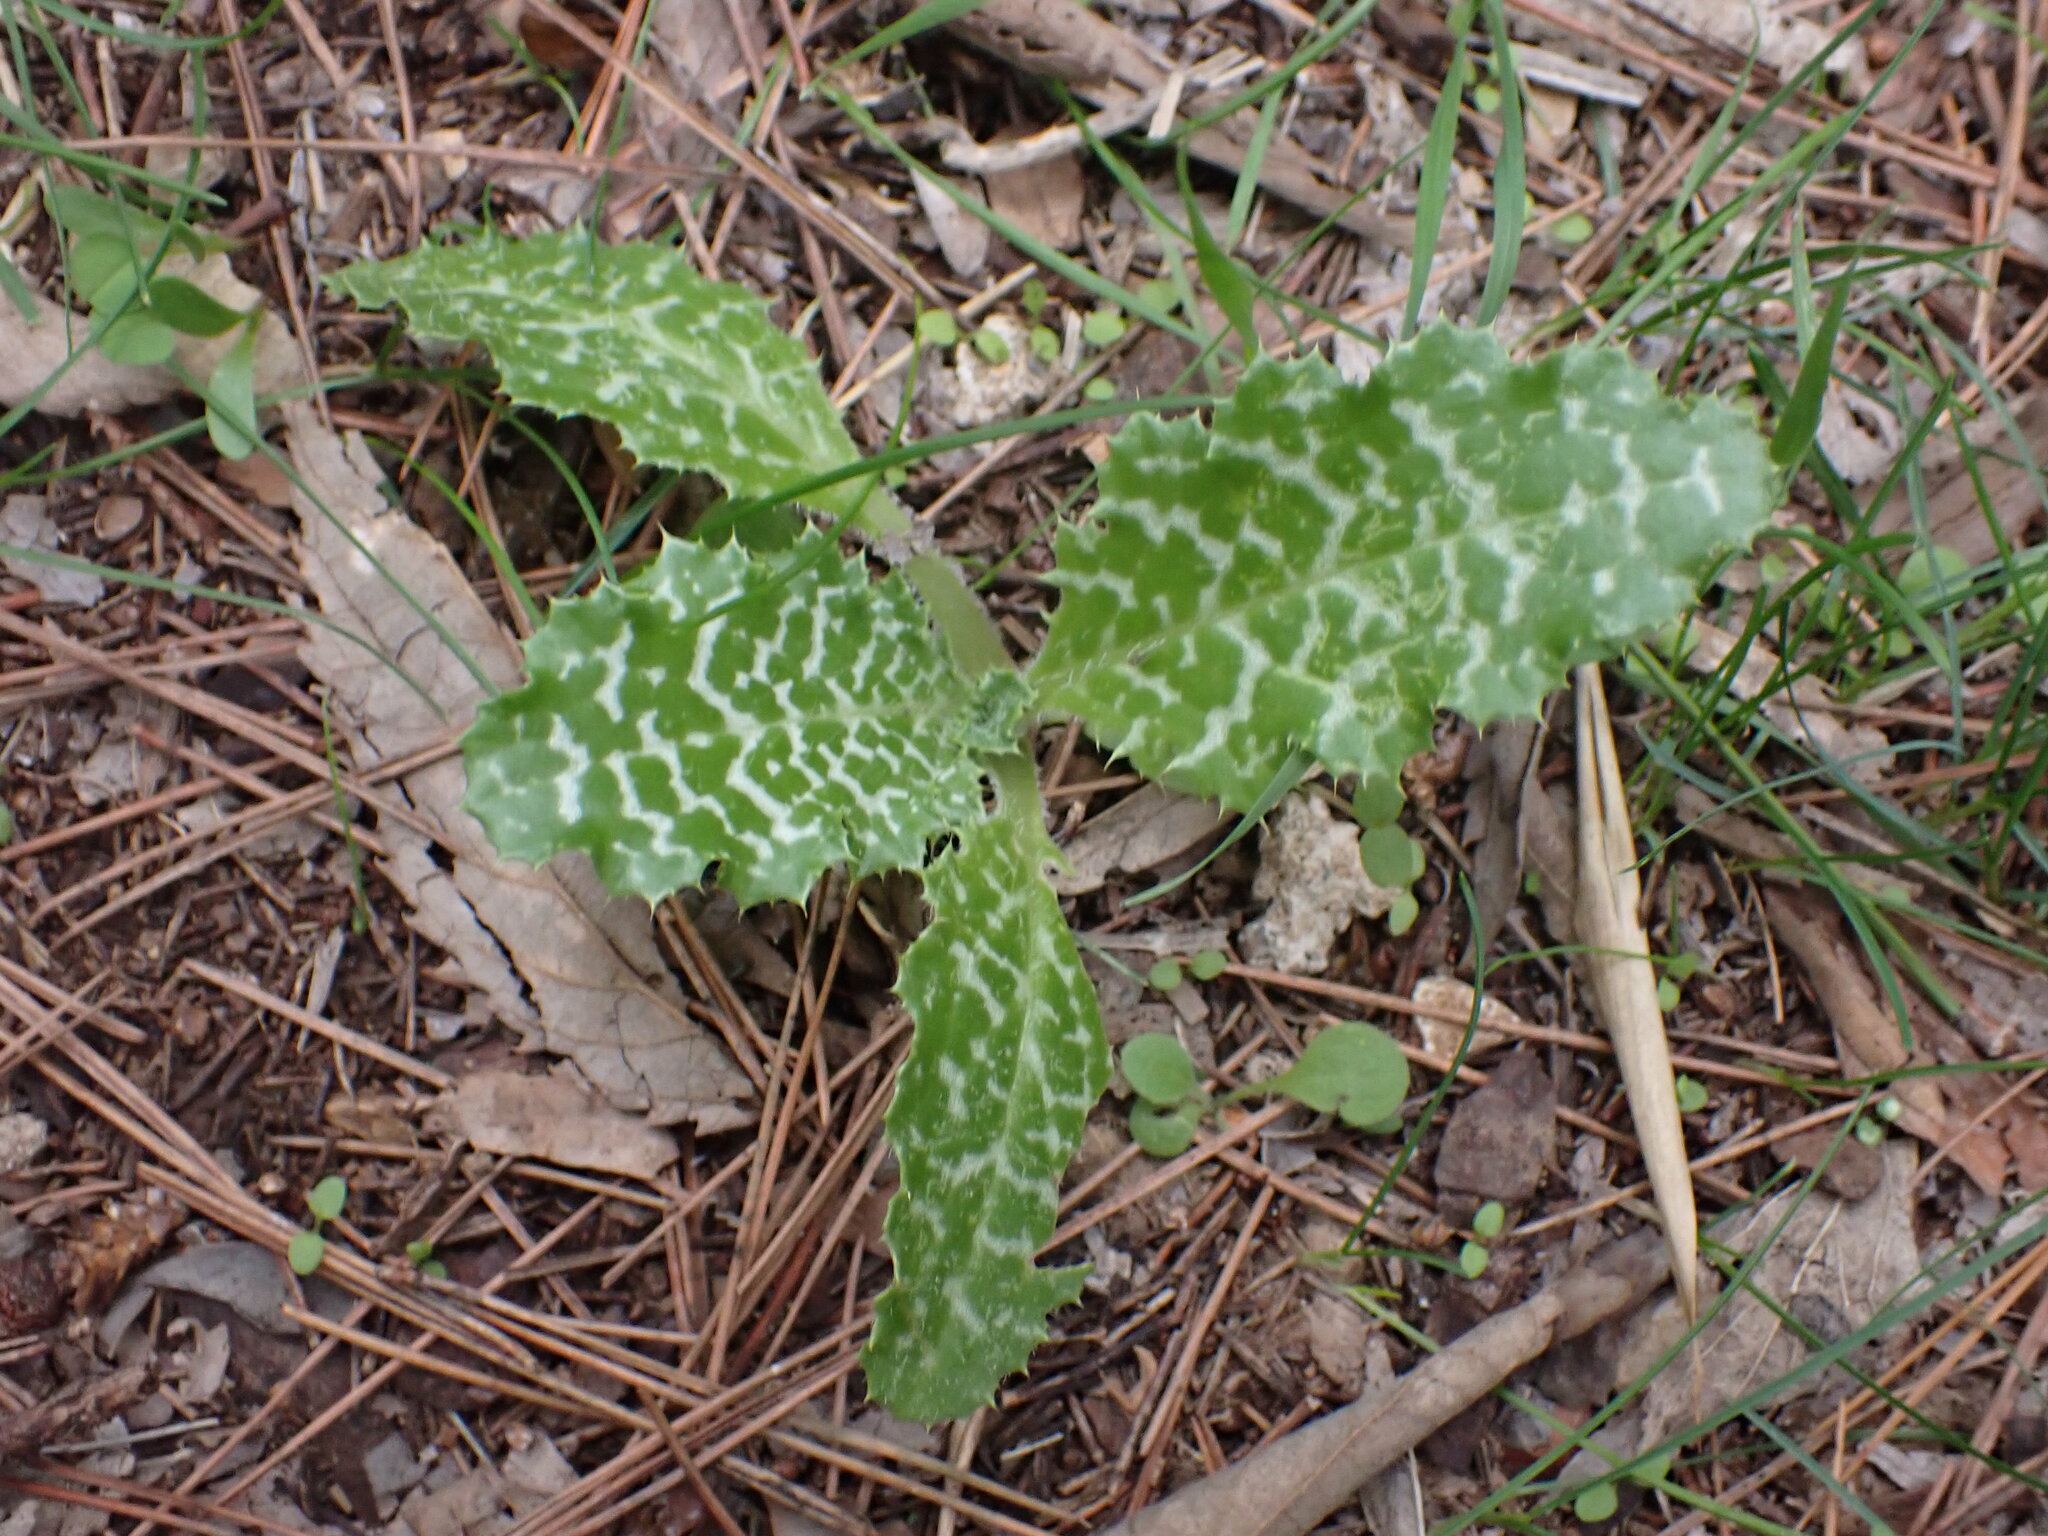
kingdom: Plantae
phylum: Tracheophyta
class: Magnoliopsida
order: Asterales
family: Asteraceae
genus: Silybum
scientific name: Silybum marianum
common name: Milk thistle
